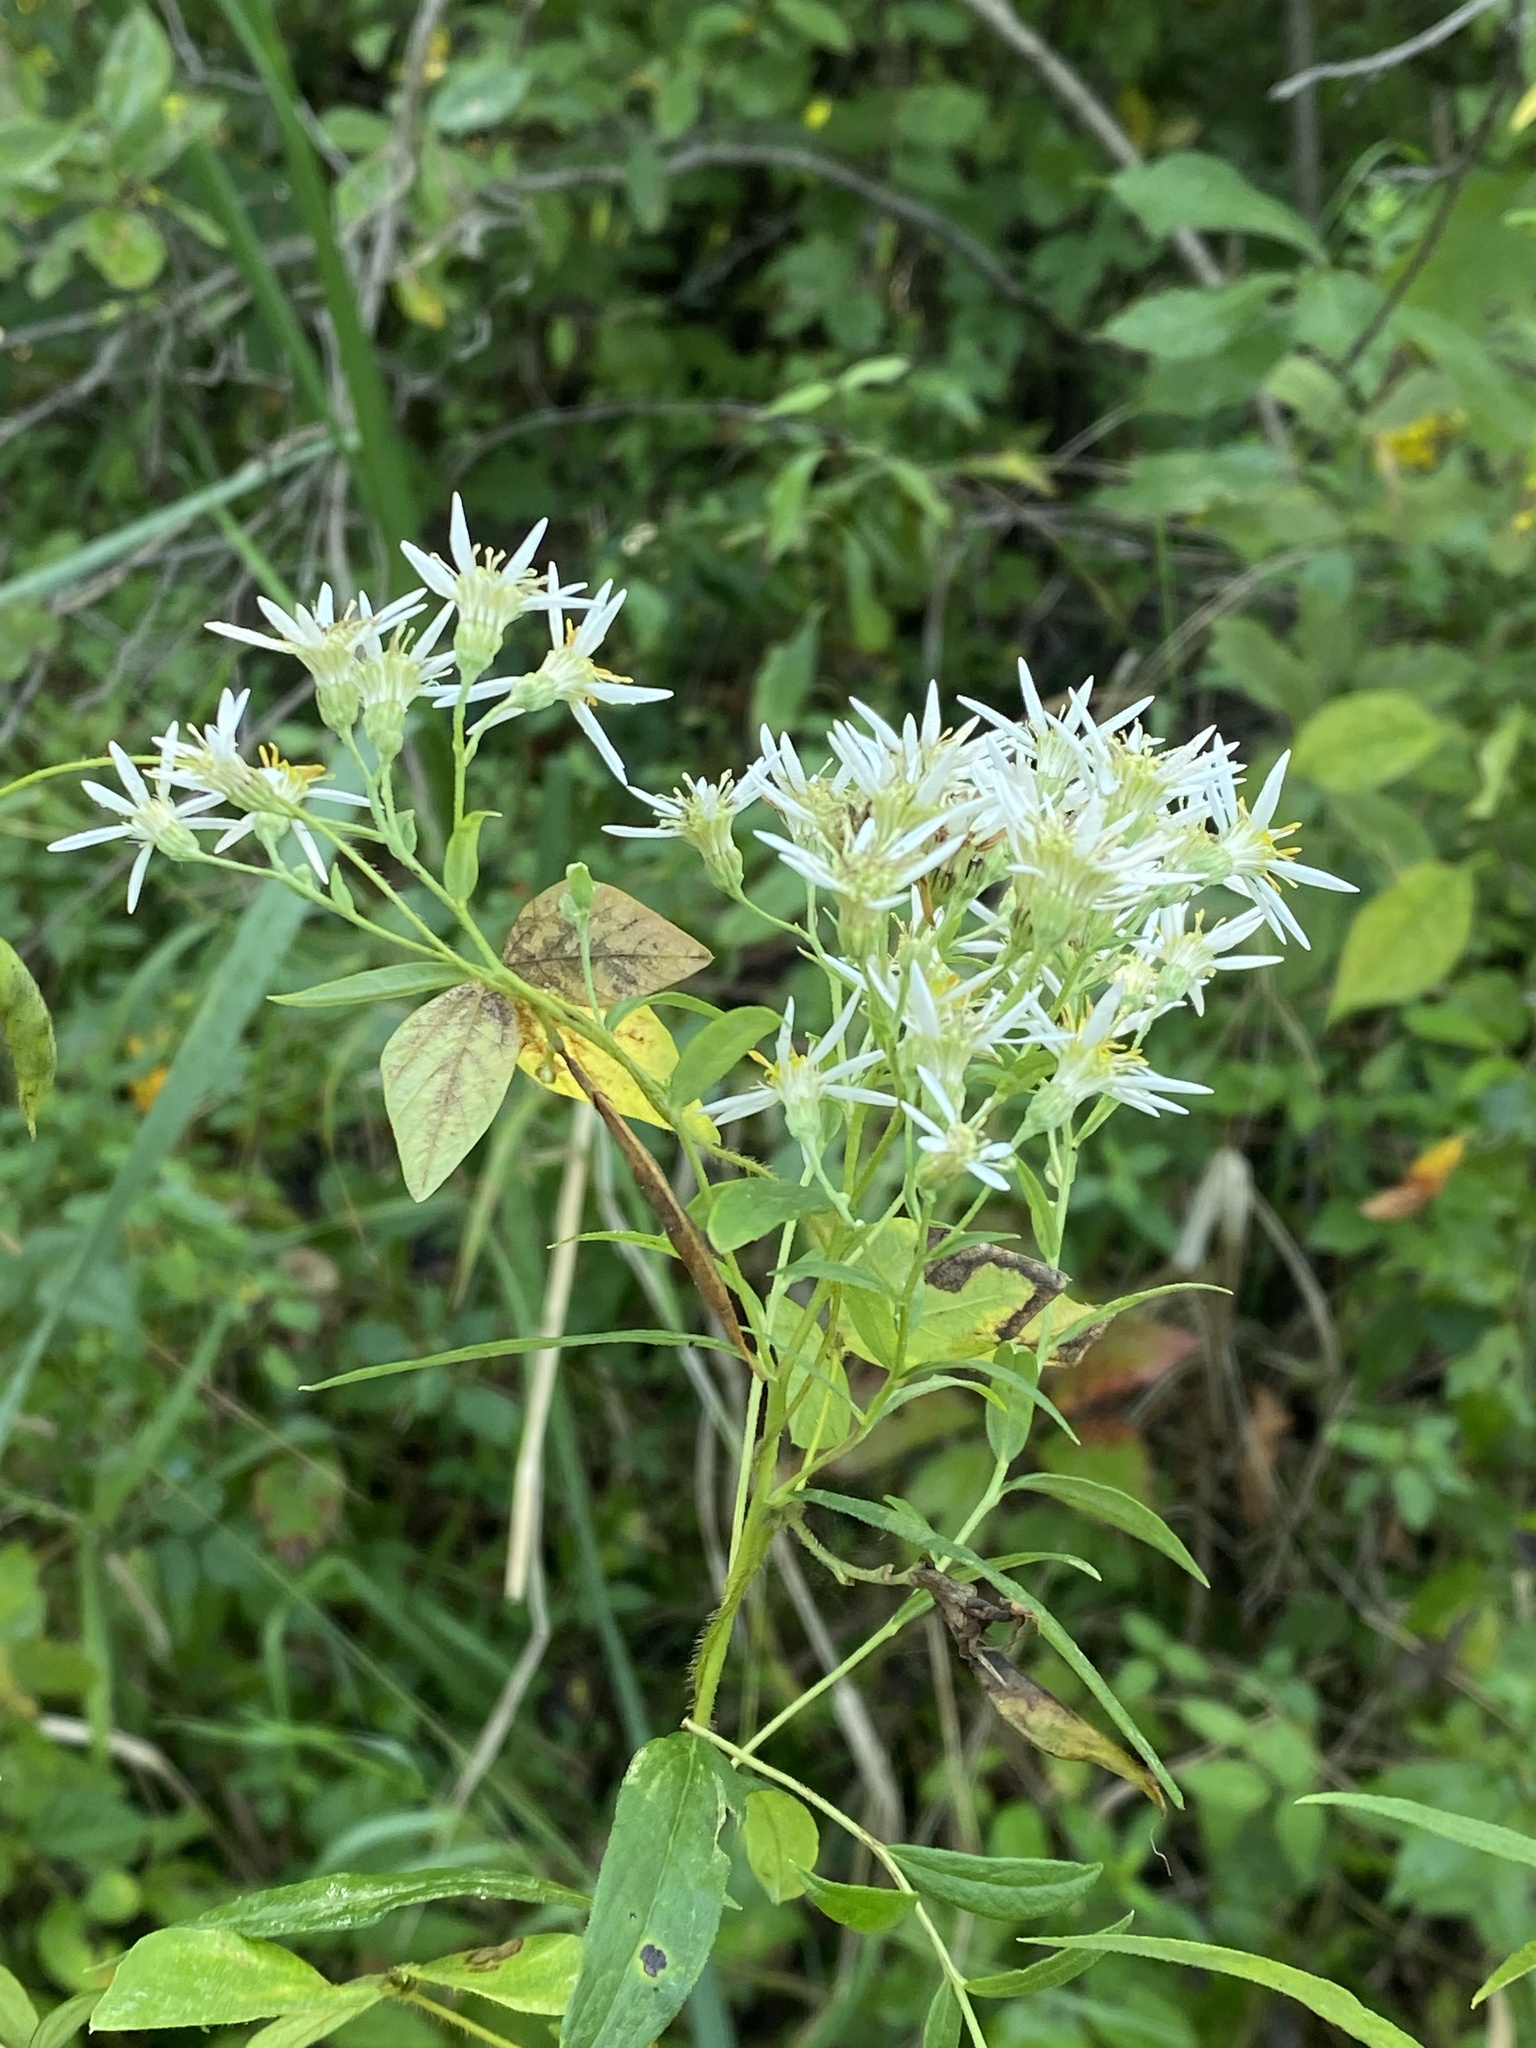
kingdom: Plantae
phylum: Tracheophyta
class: Magnoliopsida
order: Asterales
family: Asteraceae
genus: Doellingeria
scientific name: Doellingeria umbellata
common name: Flat-top white aster
